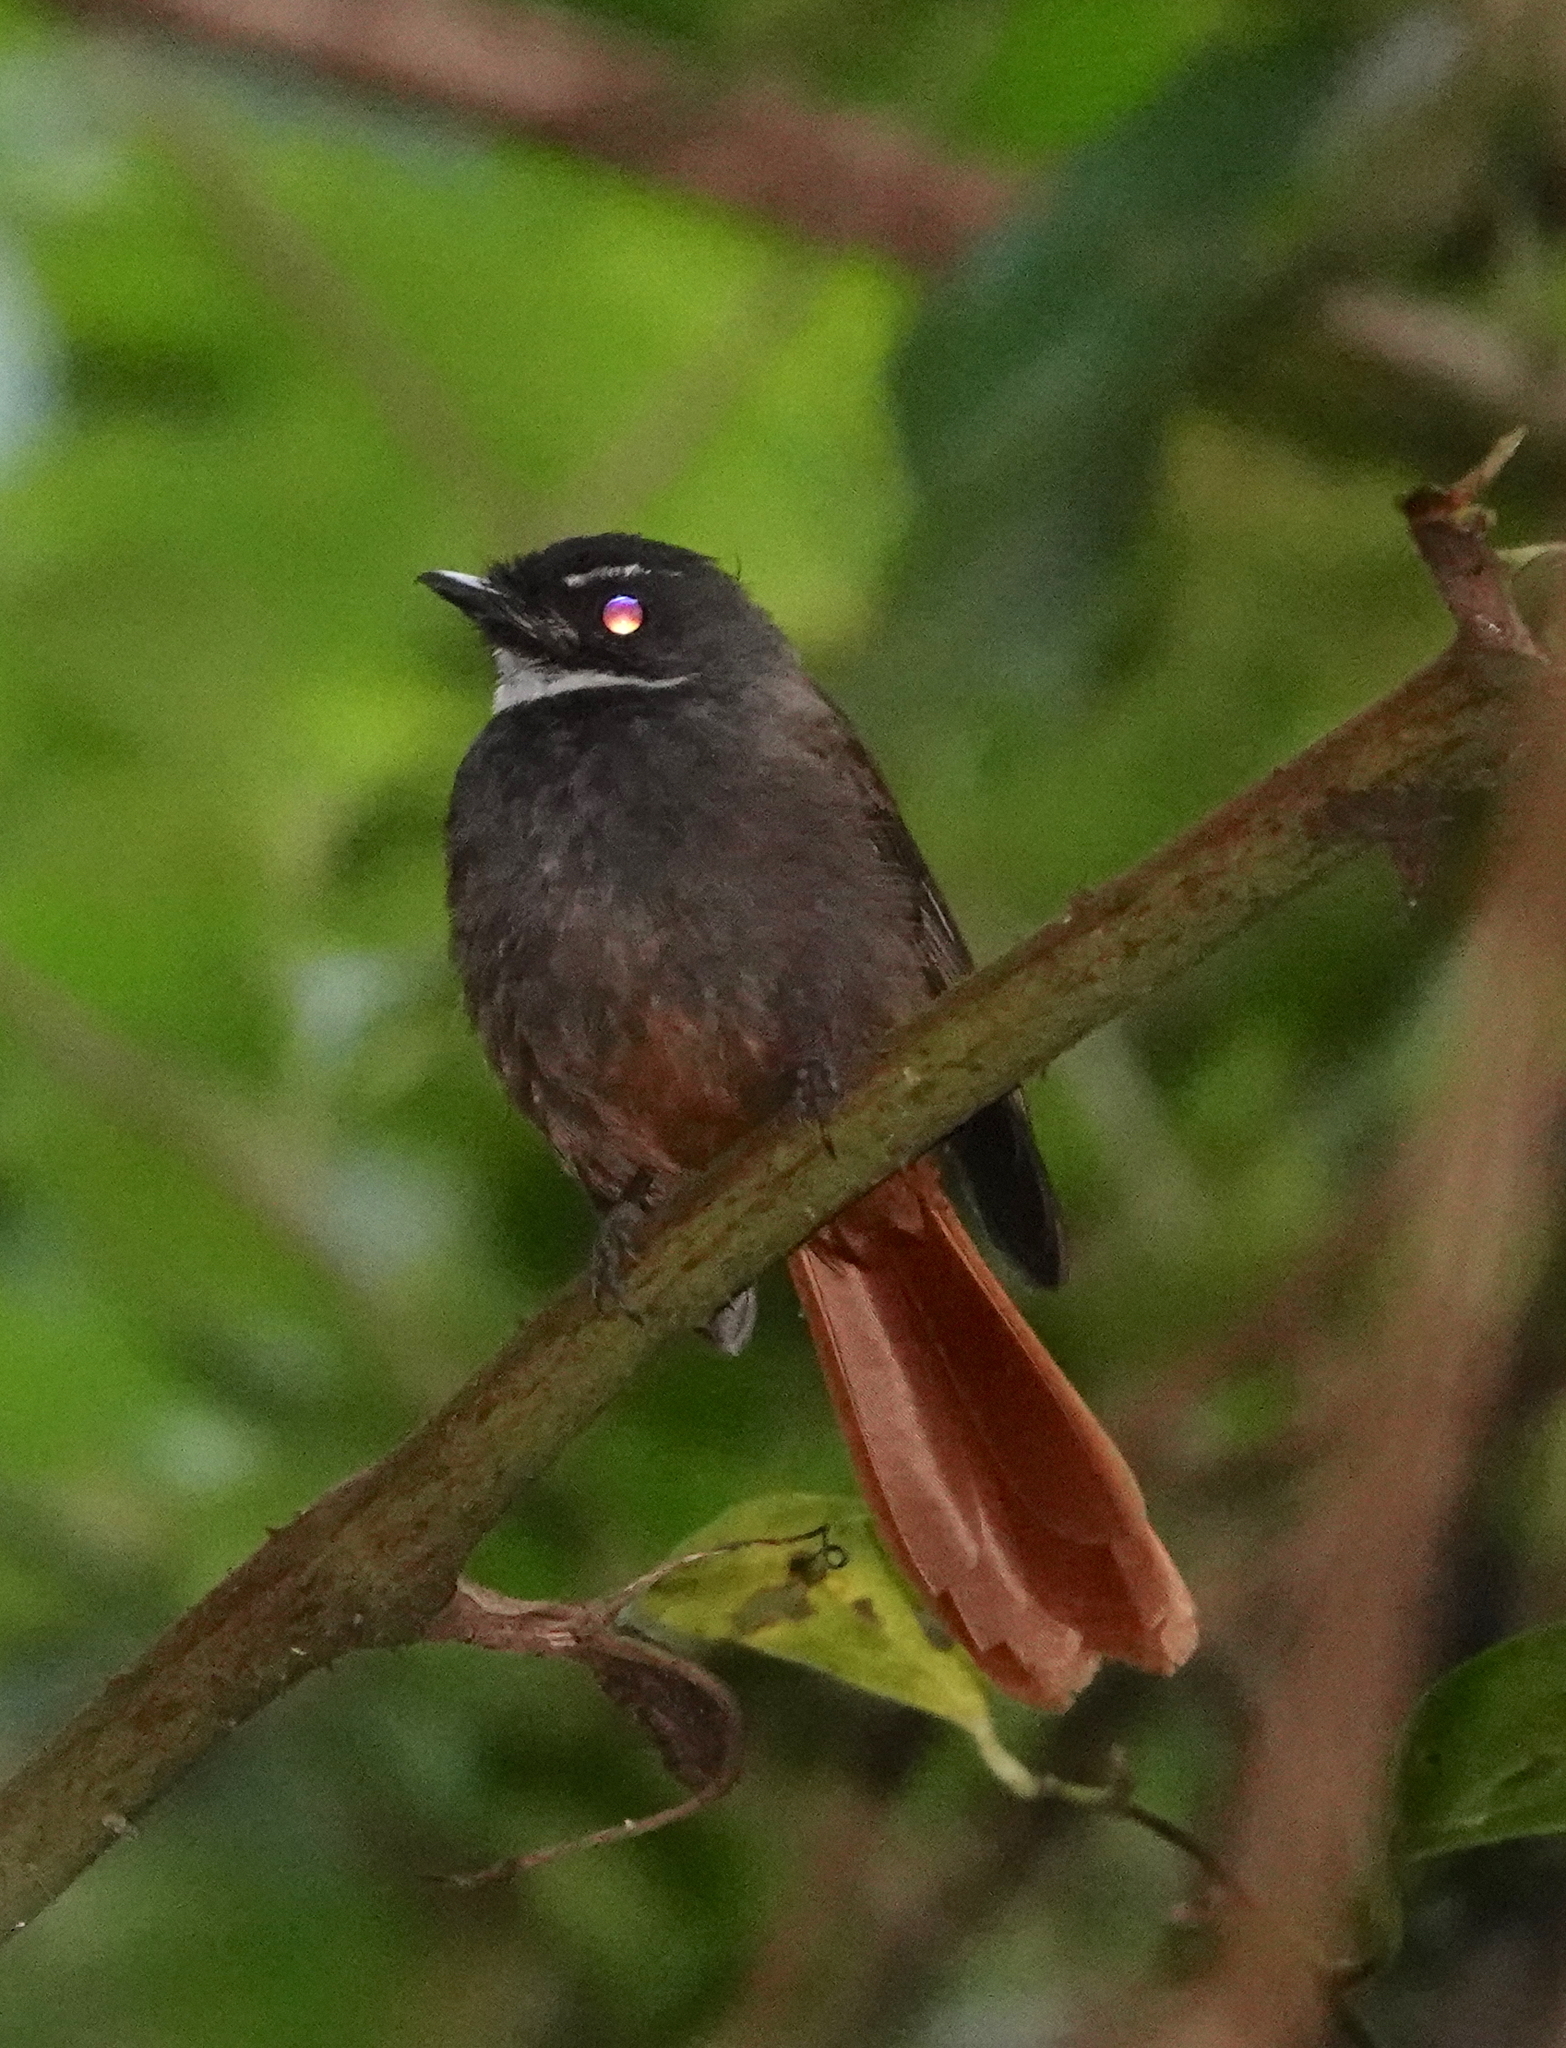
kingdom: Animalia
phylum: Chordata
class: Aves
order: Passeriformes
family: Rhipiduridae
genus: Rhipidura
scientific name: Rhipidura phoenicura
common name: Rufous-tailed fantail
